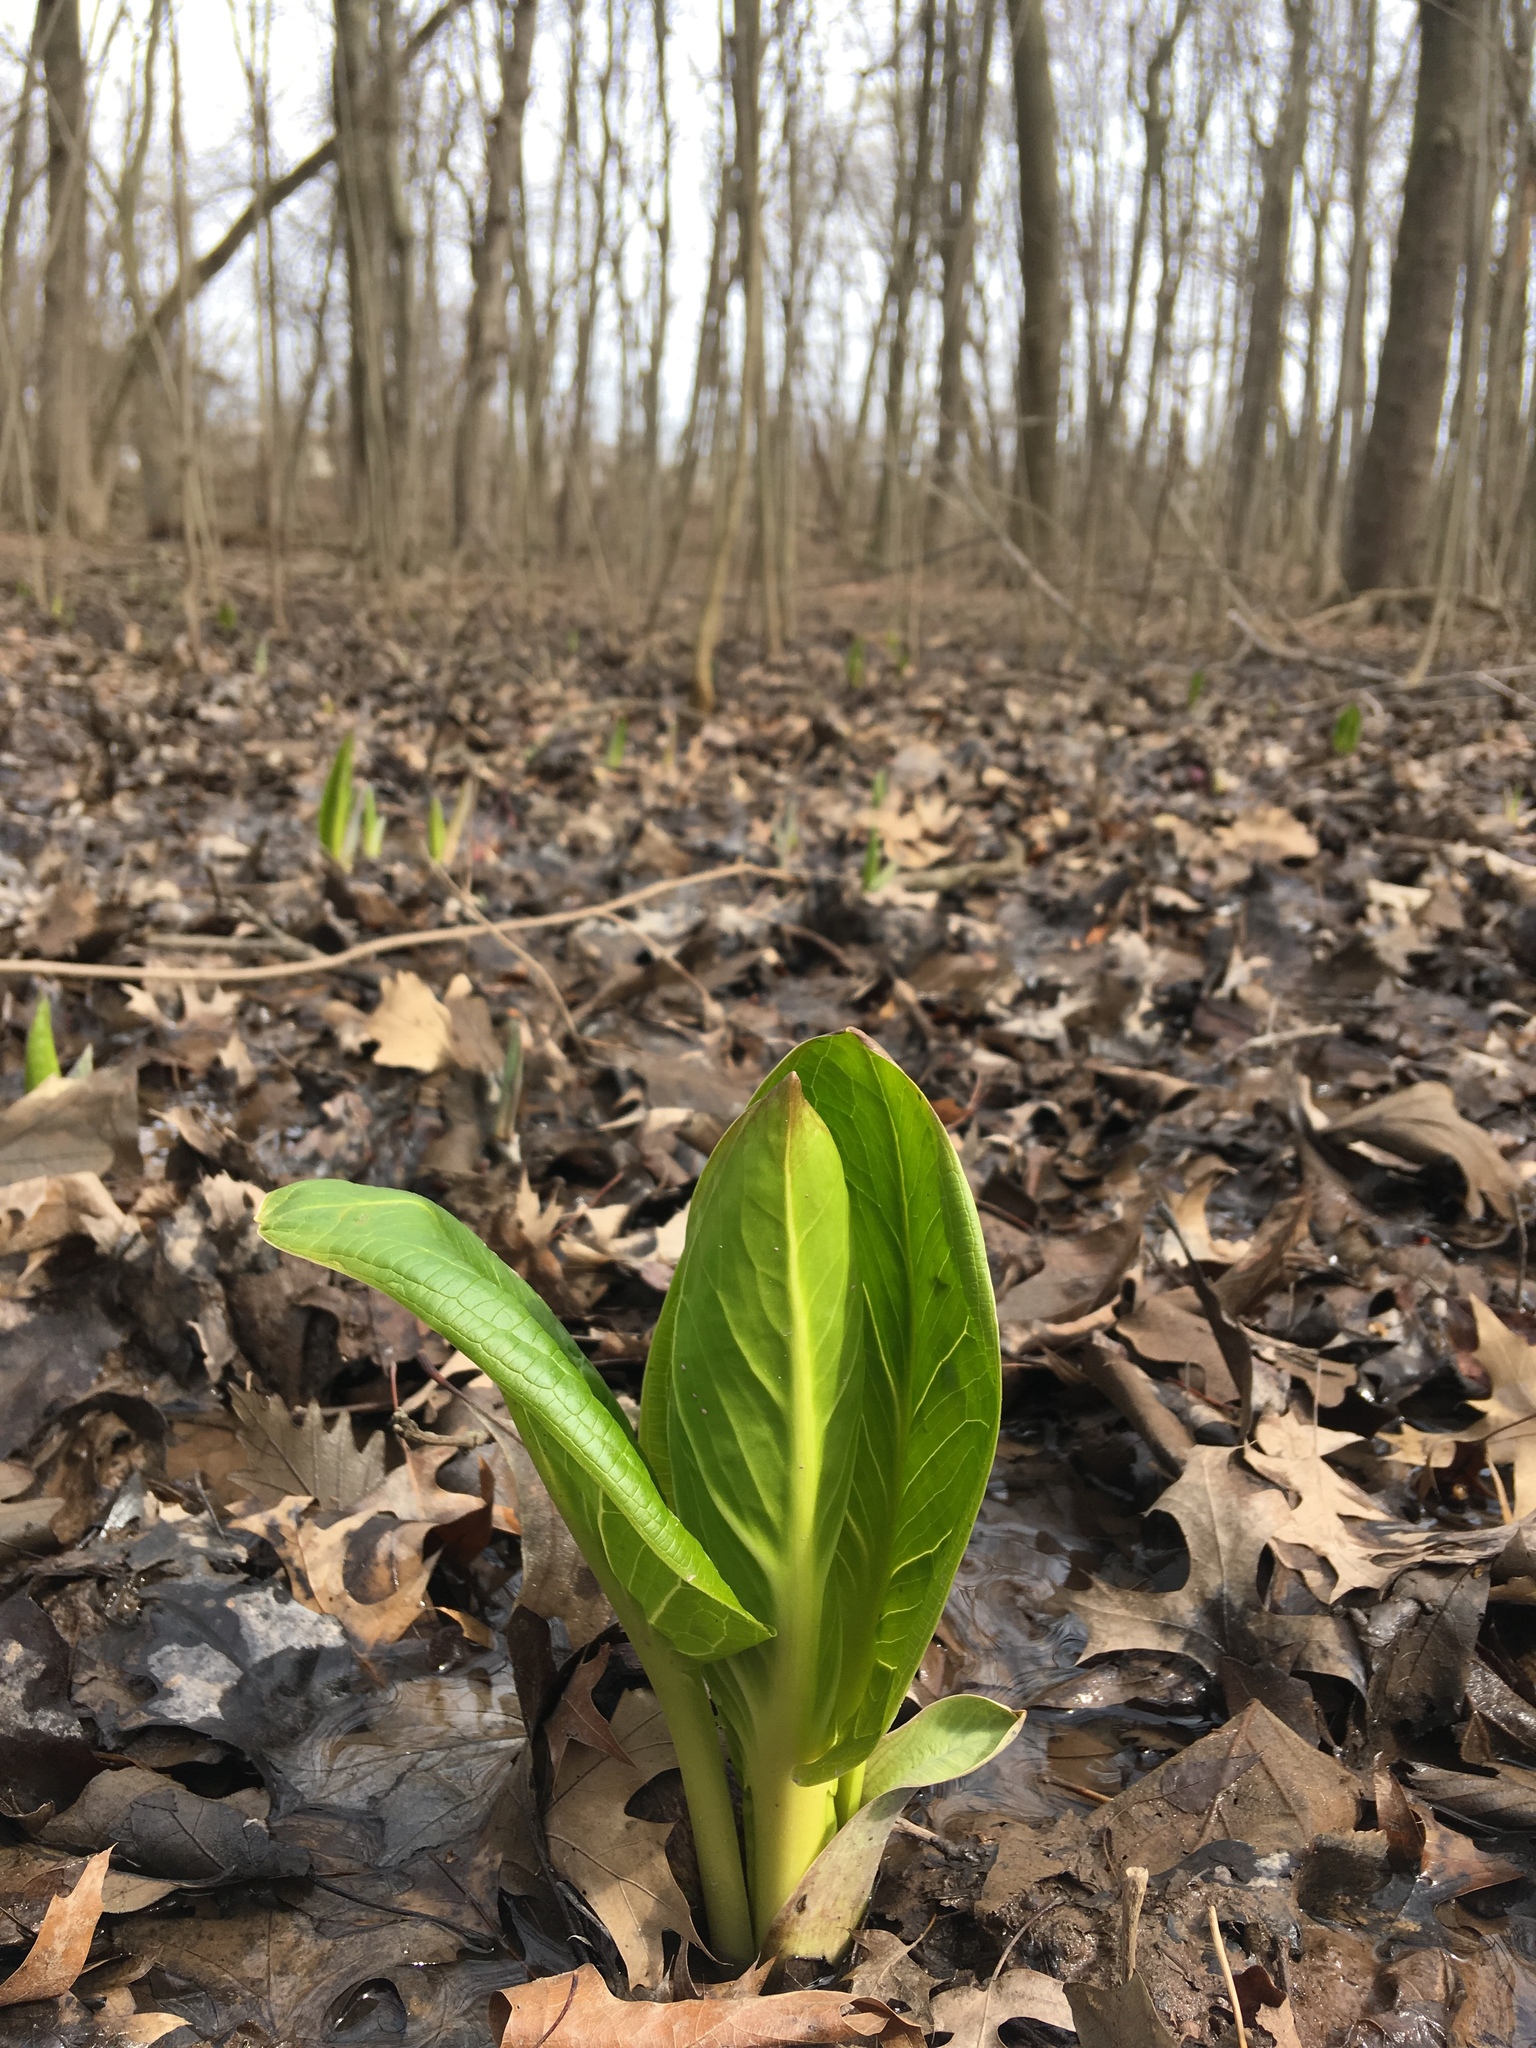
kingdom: Plantae
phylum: Tracheophyta
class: Liliopsida
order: Alismatales
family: Araceae
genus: Symplocarpus
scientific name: Symplocarpus foetidus
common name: Eastern skunk cabbage
